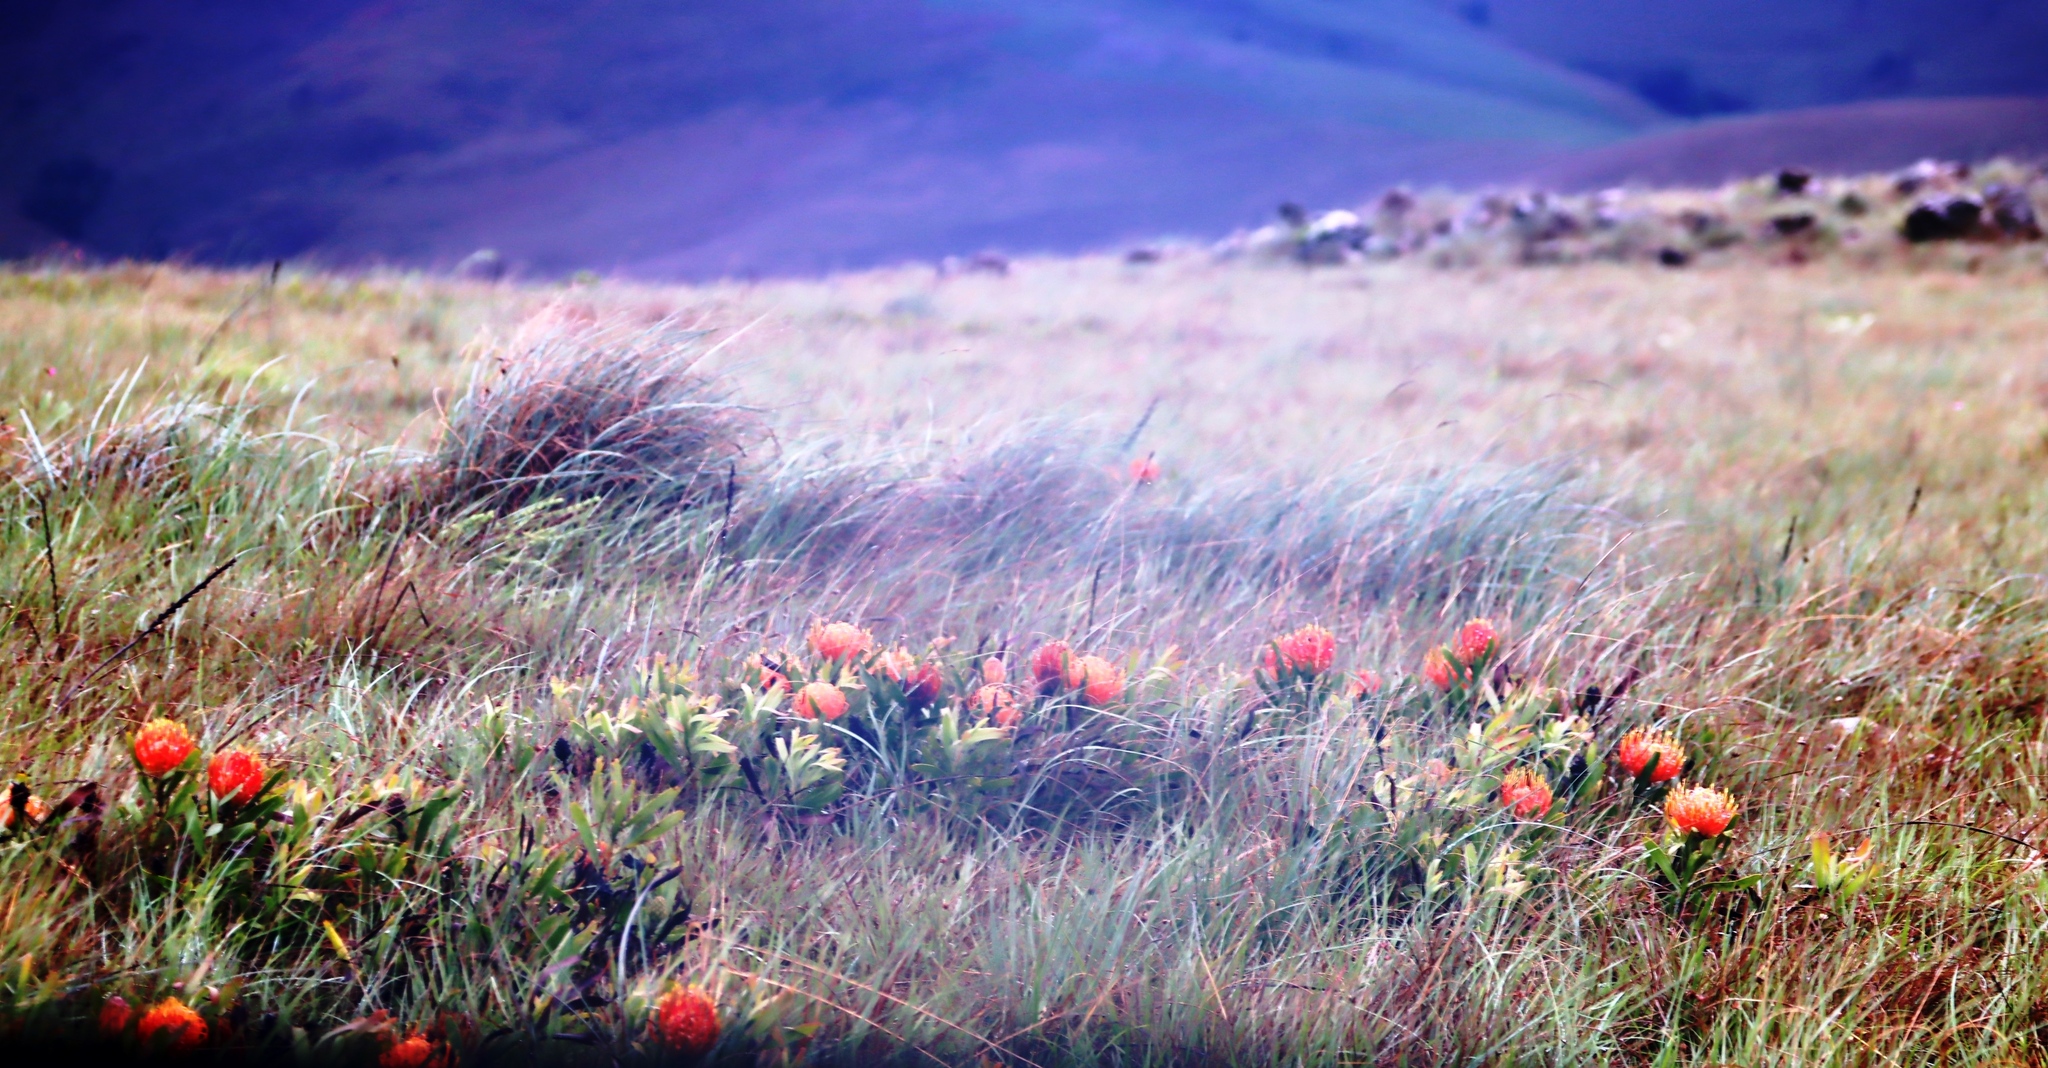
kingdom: Plantae
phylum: Tracheophyta
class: Magnoliopsida
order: Proteales
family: Proteaceae
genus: Leucospermum
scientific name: Leucospermum gerrardii
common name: Soapstone pincushion
